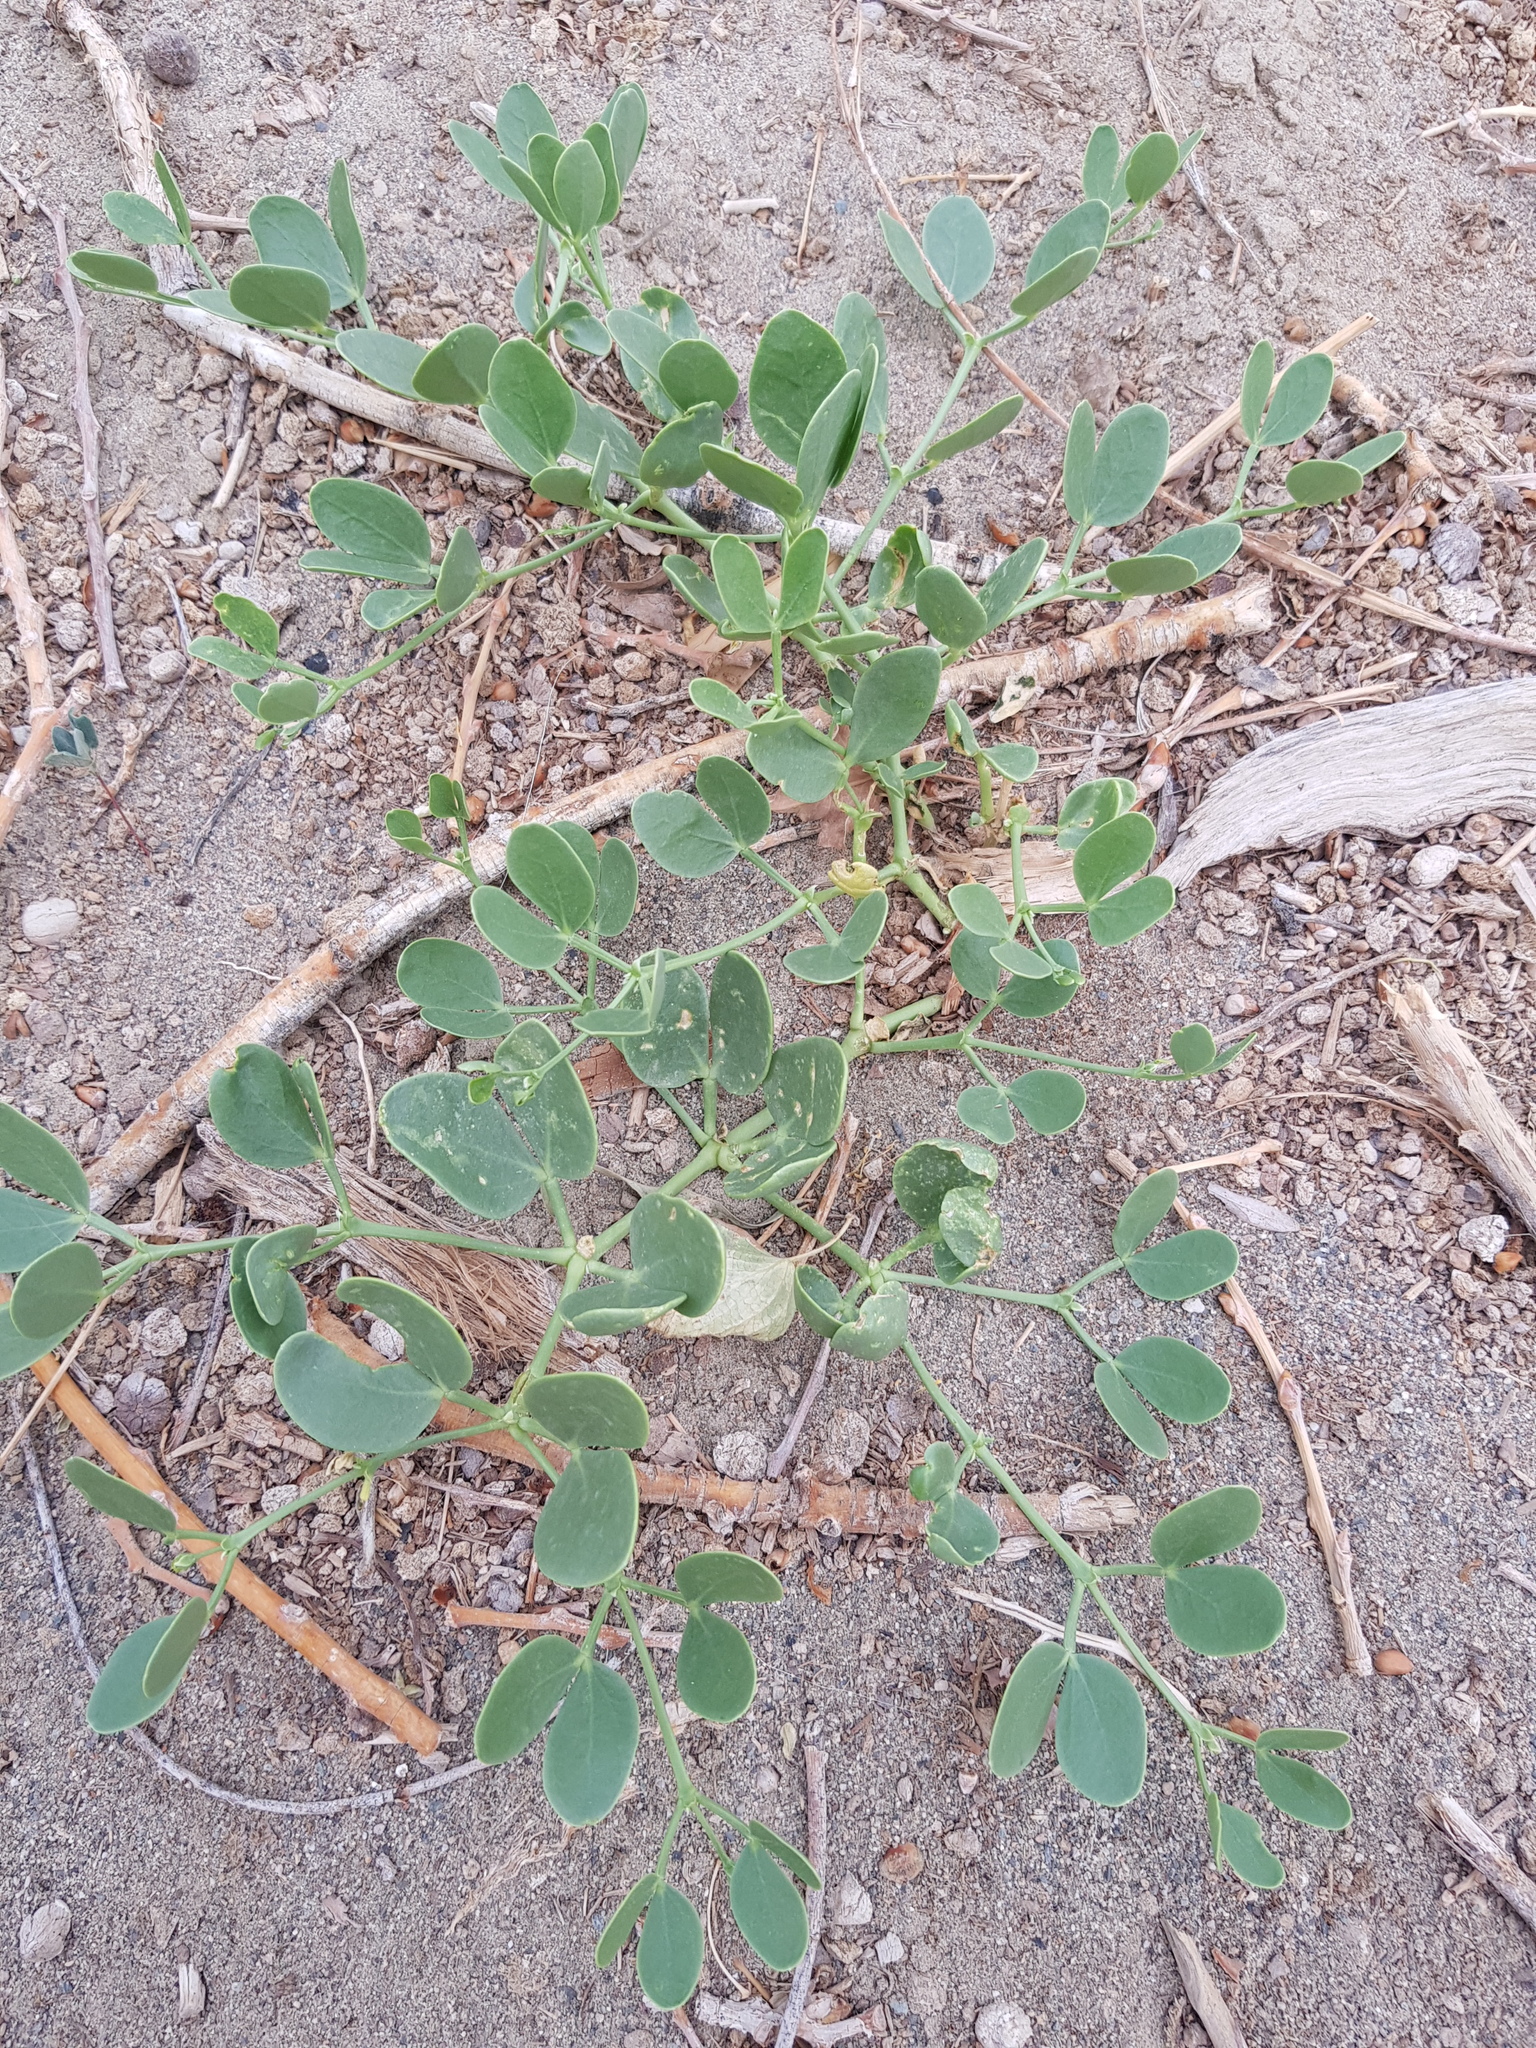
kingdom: Plantae
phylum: Tracheophyta
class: Magnoliopsida
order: Zygophyllales
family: Zygophyllaceae
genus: Zygophyllum
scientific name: Zygophyllum brachypterum
